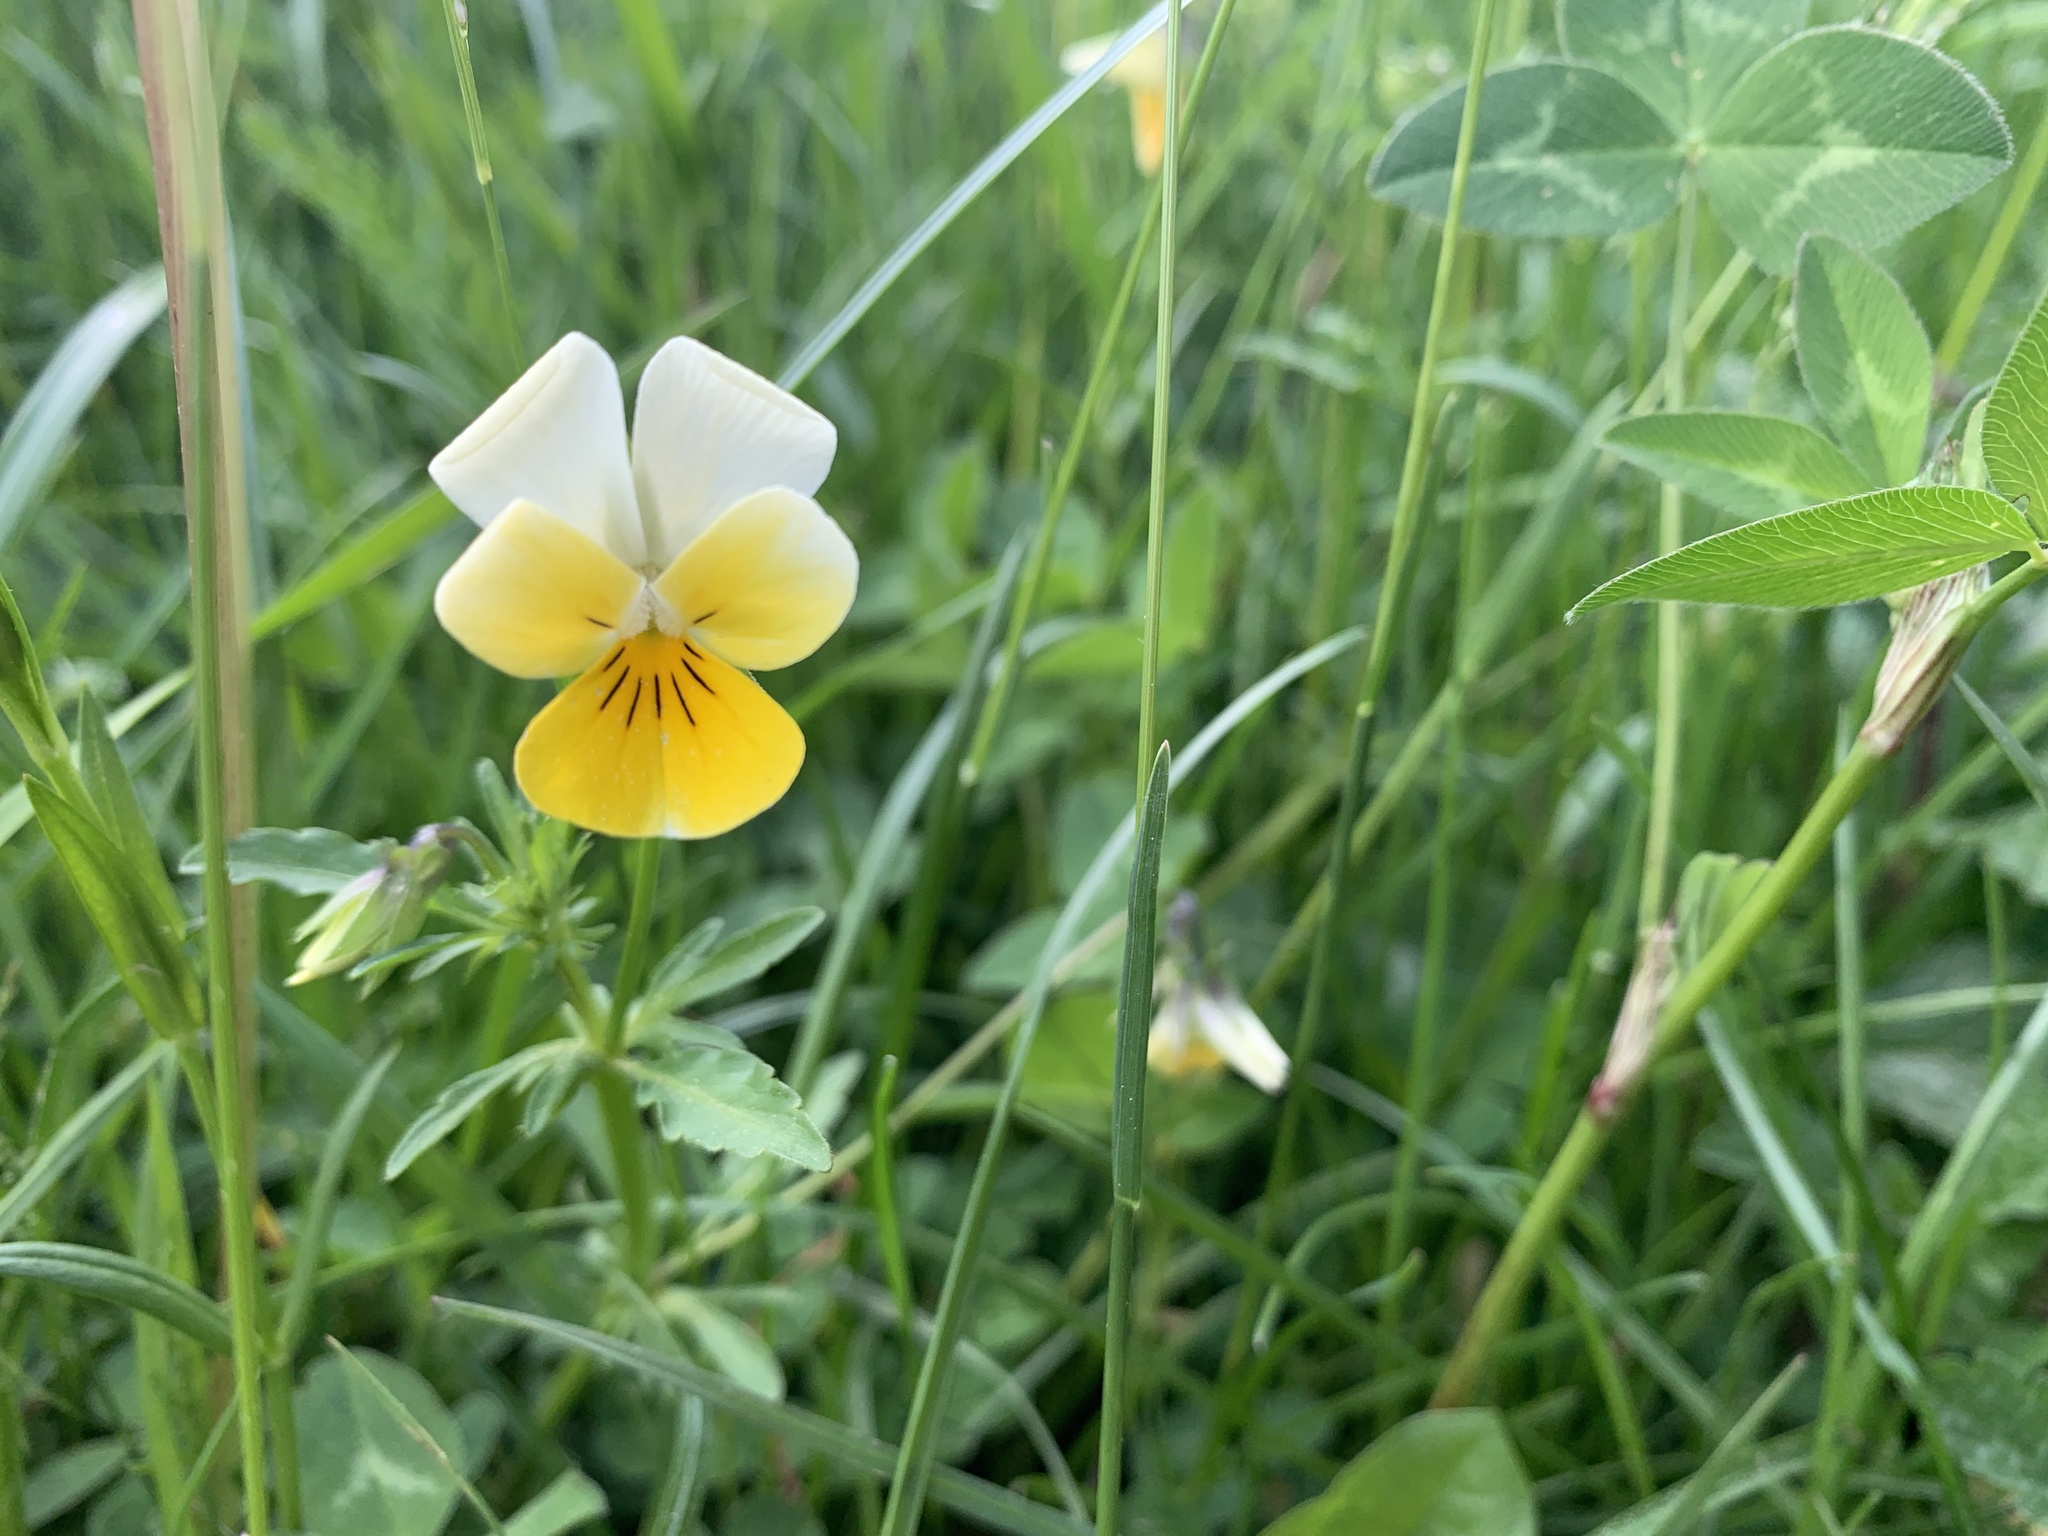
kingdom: Plantae
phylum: Tracheophyta
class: Magnoliopsida
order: Malpighiales
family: Violaceae
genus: Viola
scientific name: Viola arvensis
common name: Field pansy
